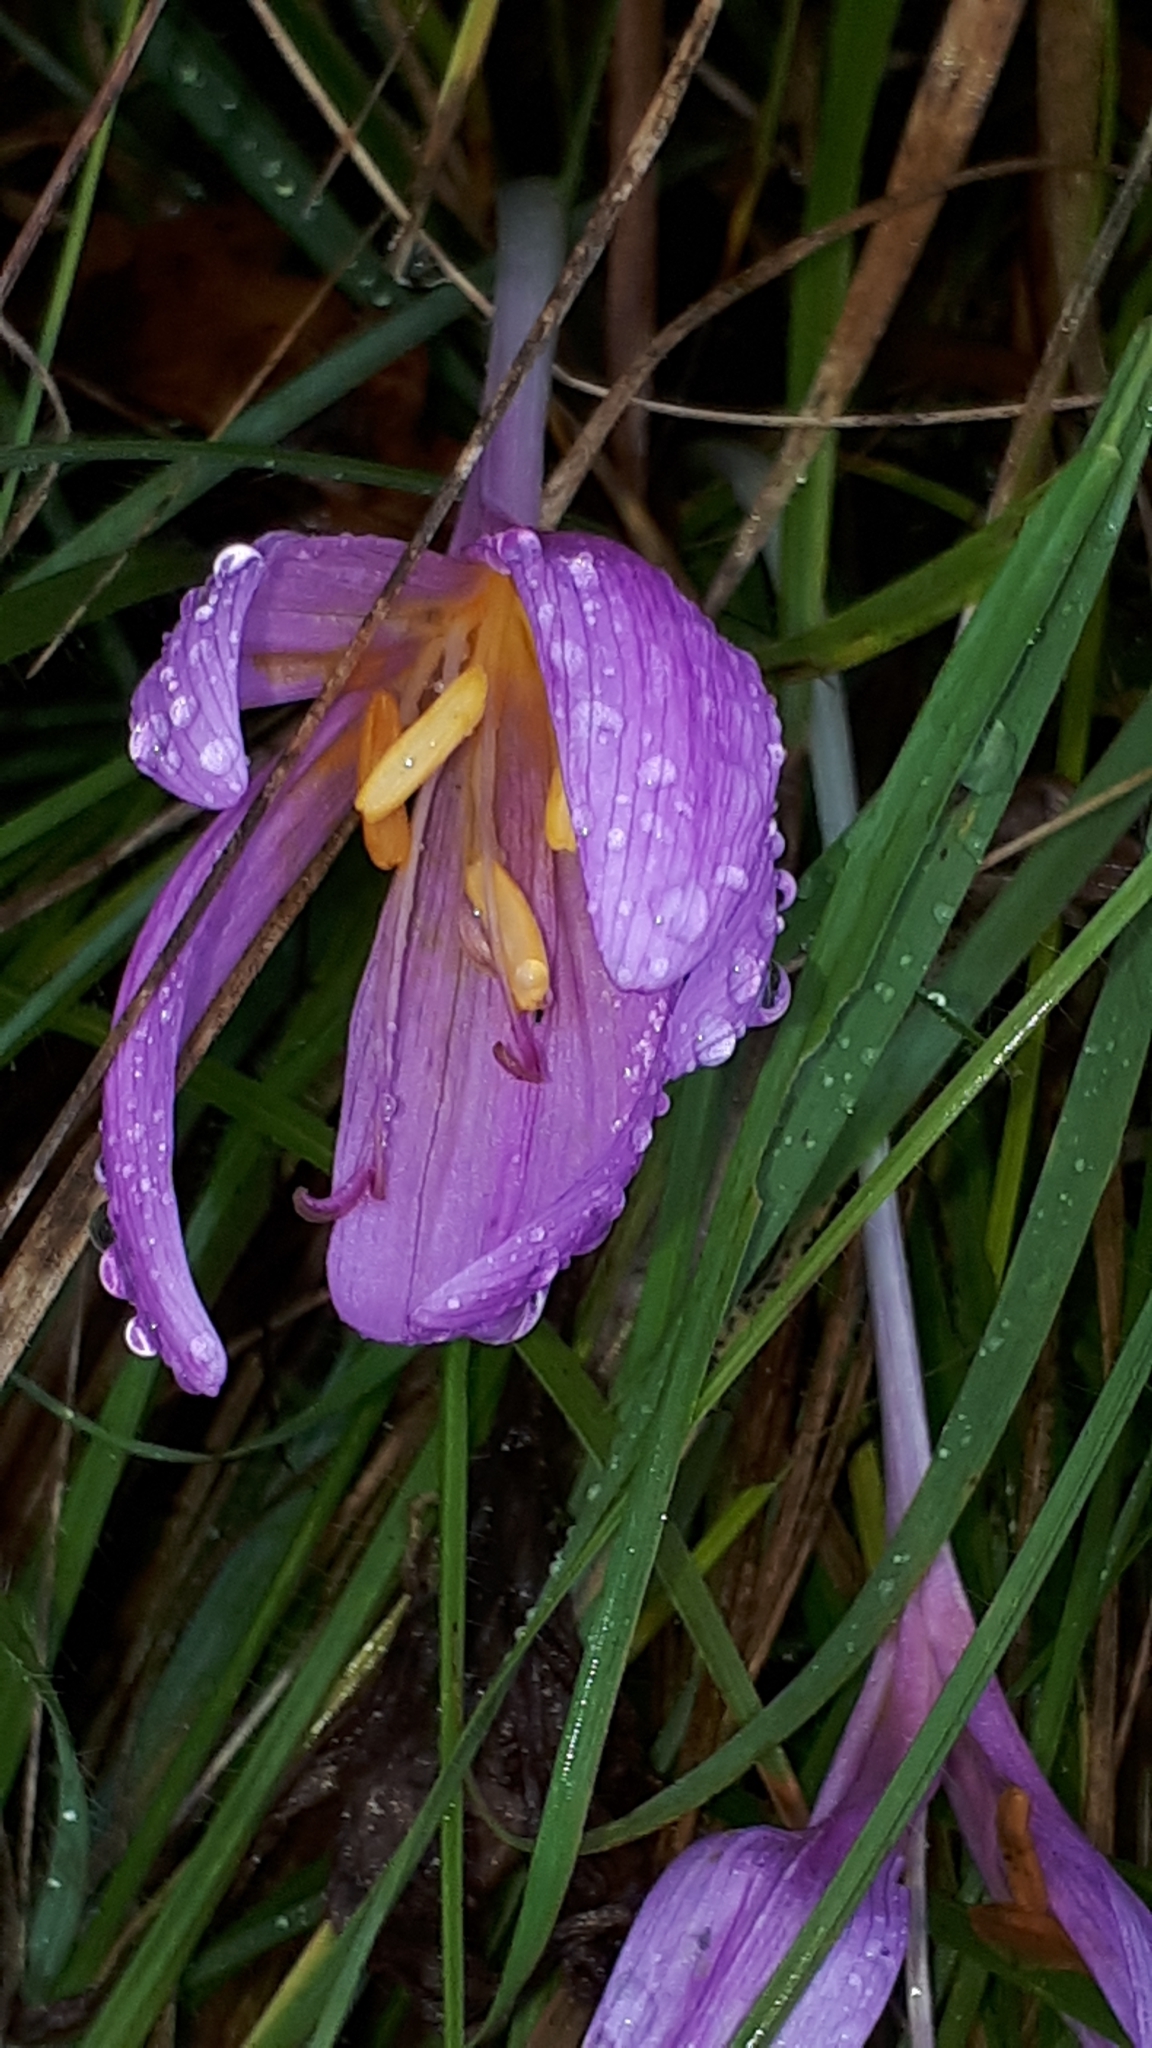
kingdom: Plantae
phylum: Tracheophyta
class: Liliopsida
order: Liliales
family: Colchicaceae
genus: Colchicum
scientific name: Colchicum autumnale
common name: Autumn crocus
